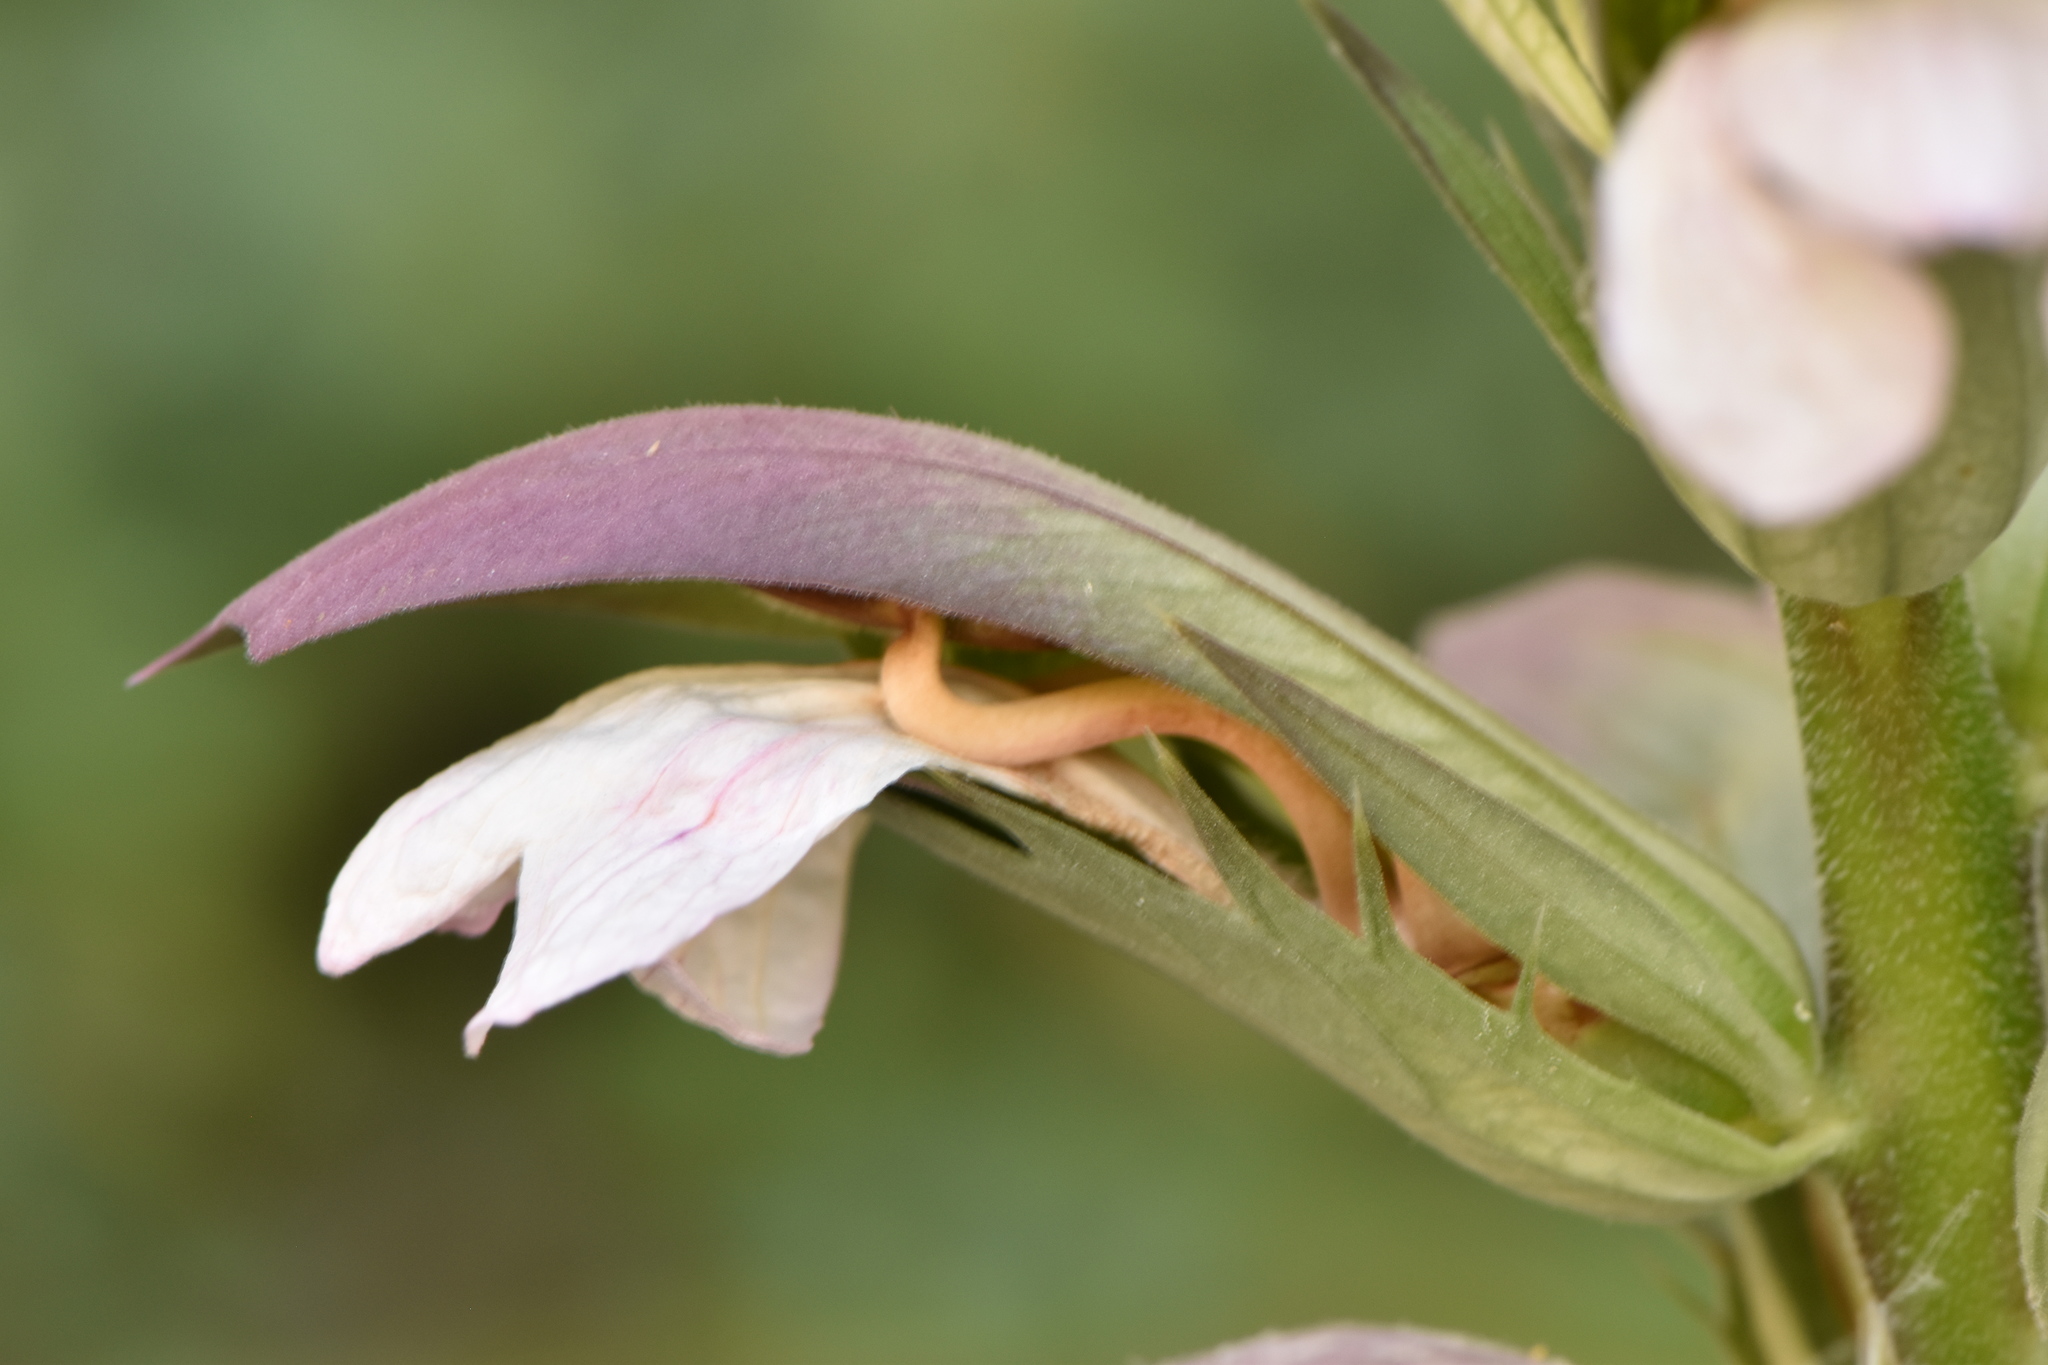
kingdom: Plantae
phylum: Tracheophyta
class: Magnoliopsida
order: Lamiales
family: Acanthaceae
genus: Acanthus
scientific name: Acanthus mollis
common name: Bear's-breech
